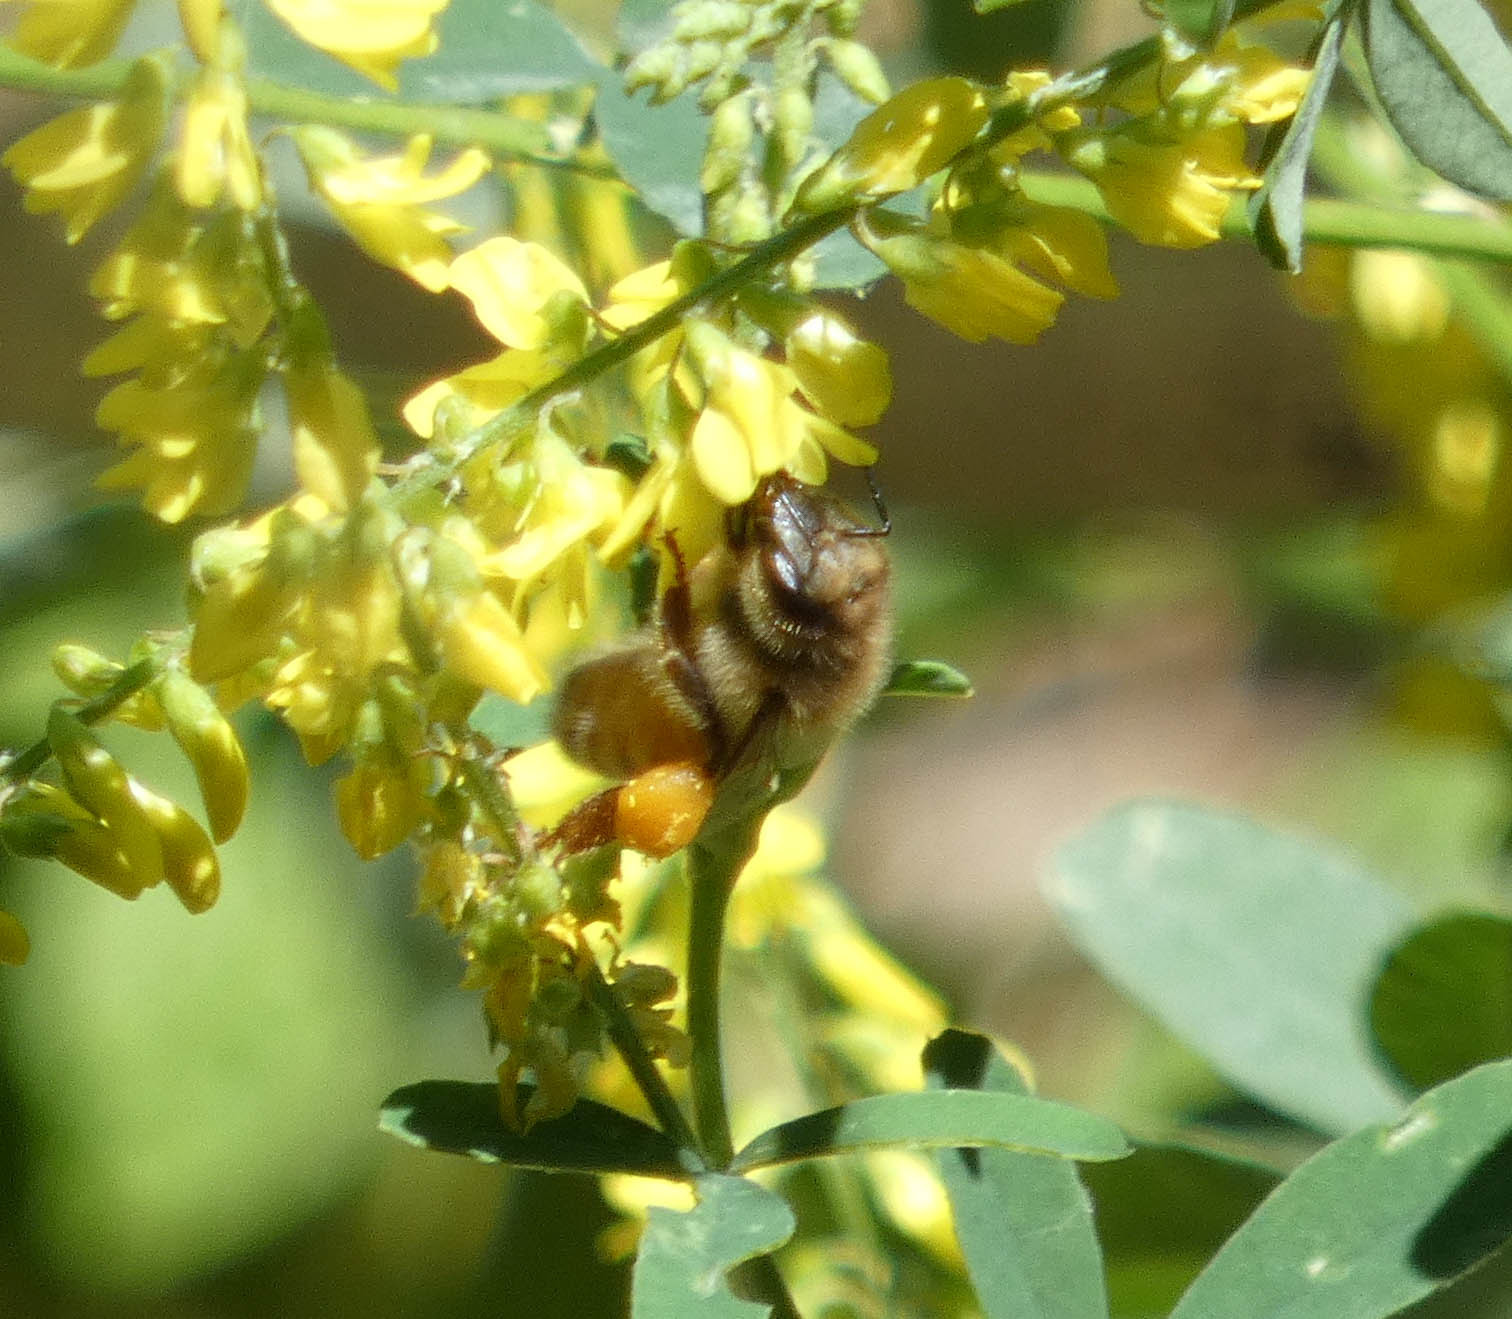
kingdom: Animalia
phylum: Arthropoda
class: Insecta
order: Hymenoptera
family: Apidae
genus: Apis
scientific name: Apis mellifera
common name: Honey bee
